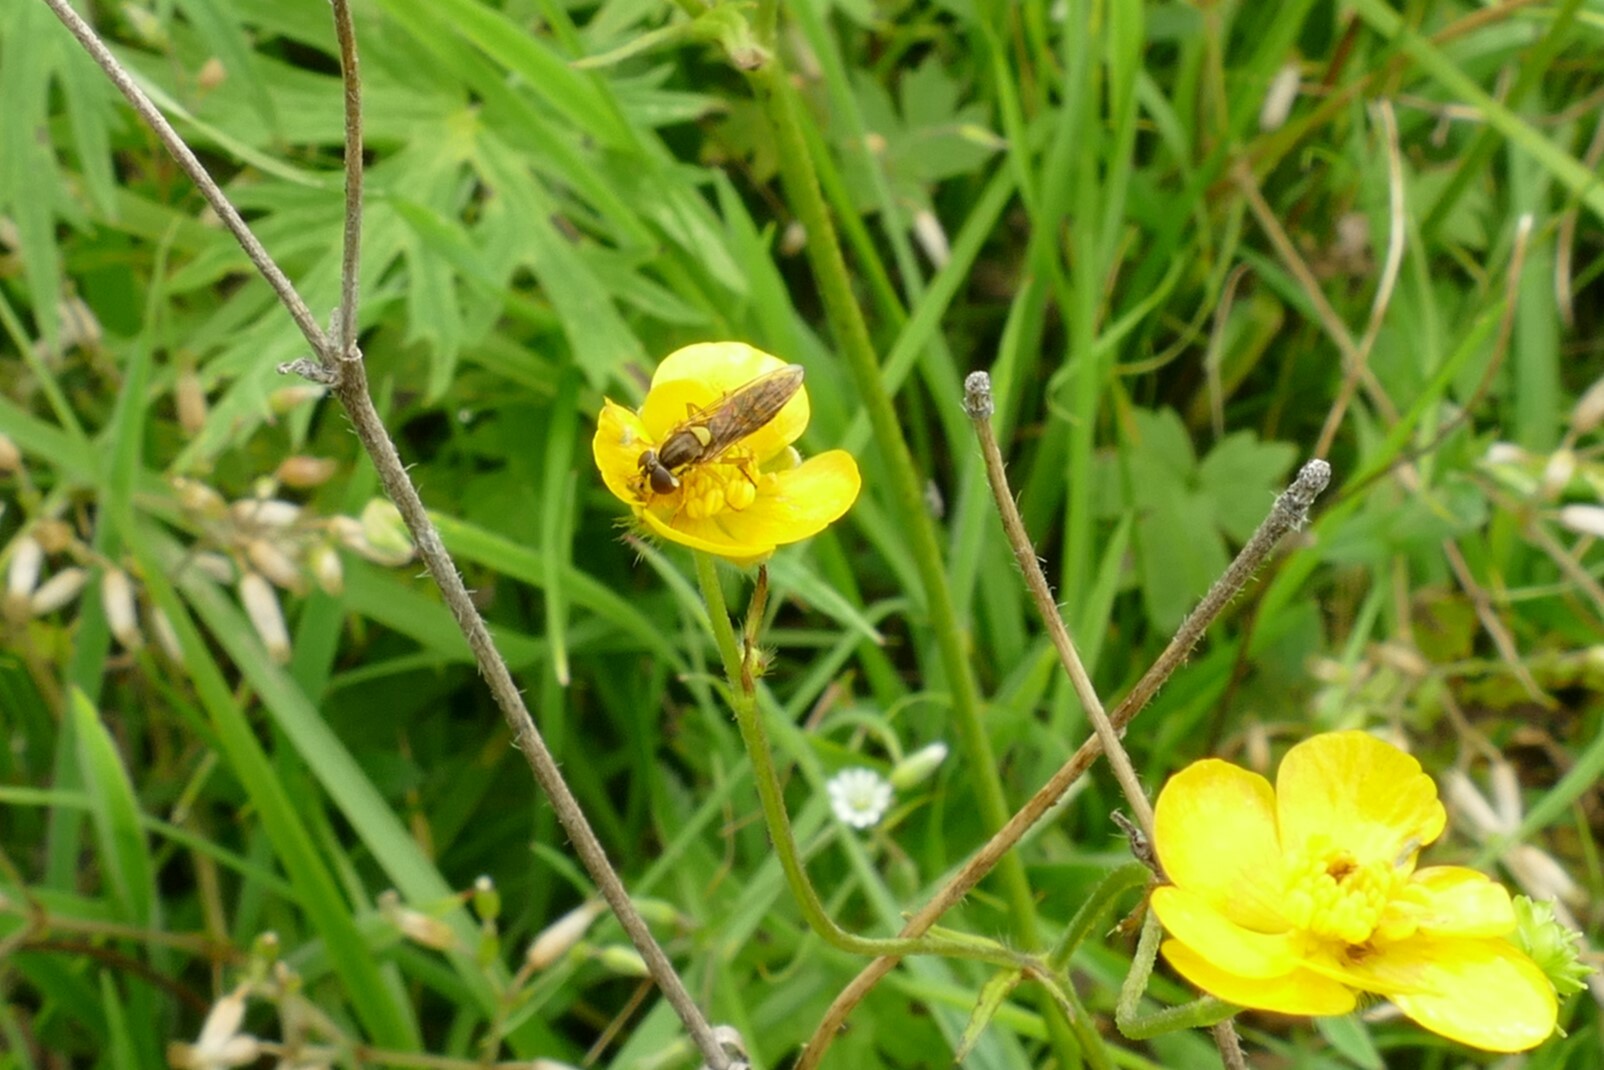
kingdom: Animalia
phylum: Arthropoda
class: Insecta
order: Diptera
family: Syrphidae
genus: Sphaerophoria
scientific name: Sphaerophoria
